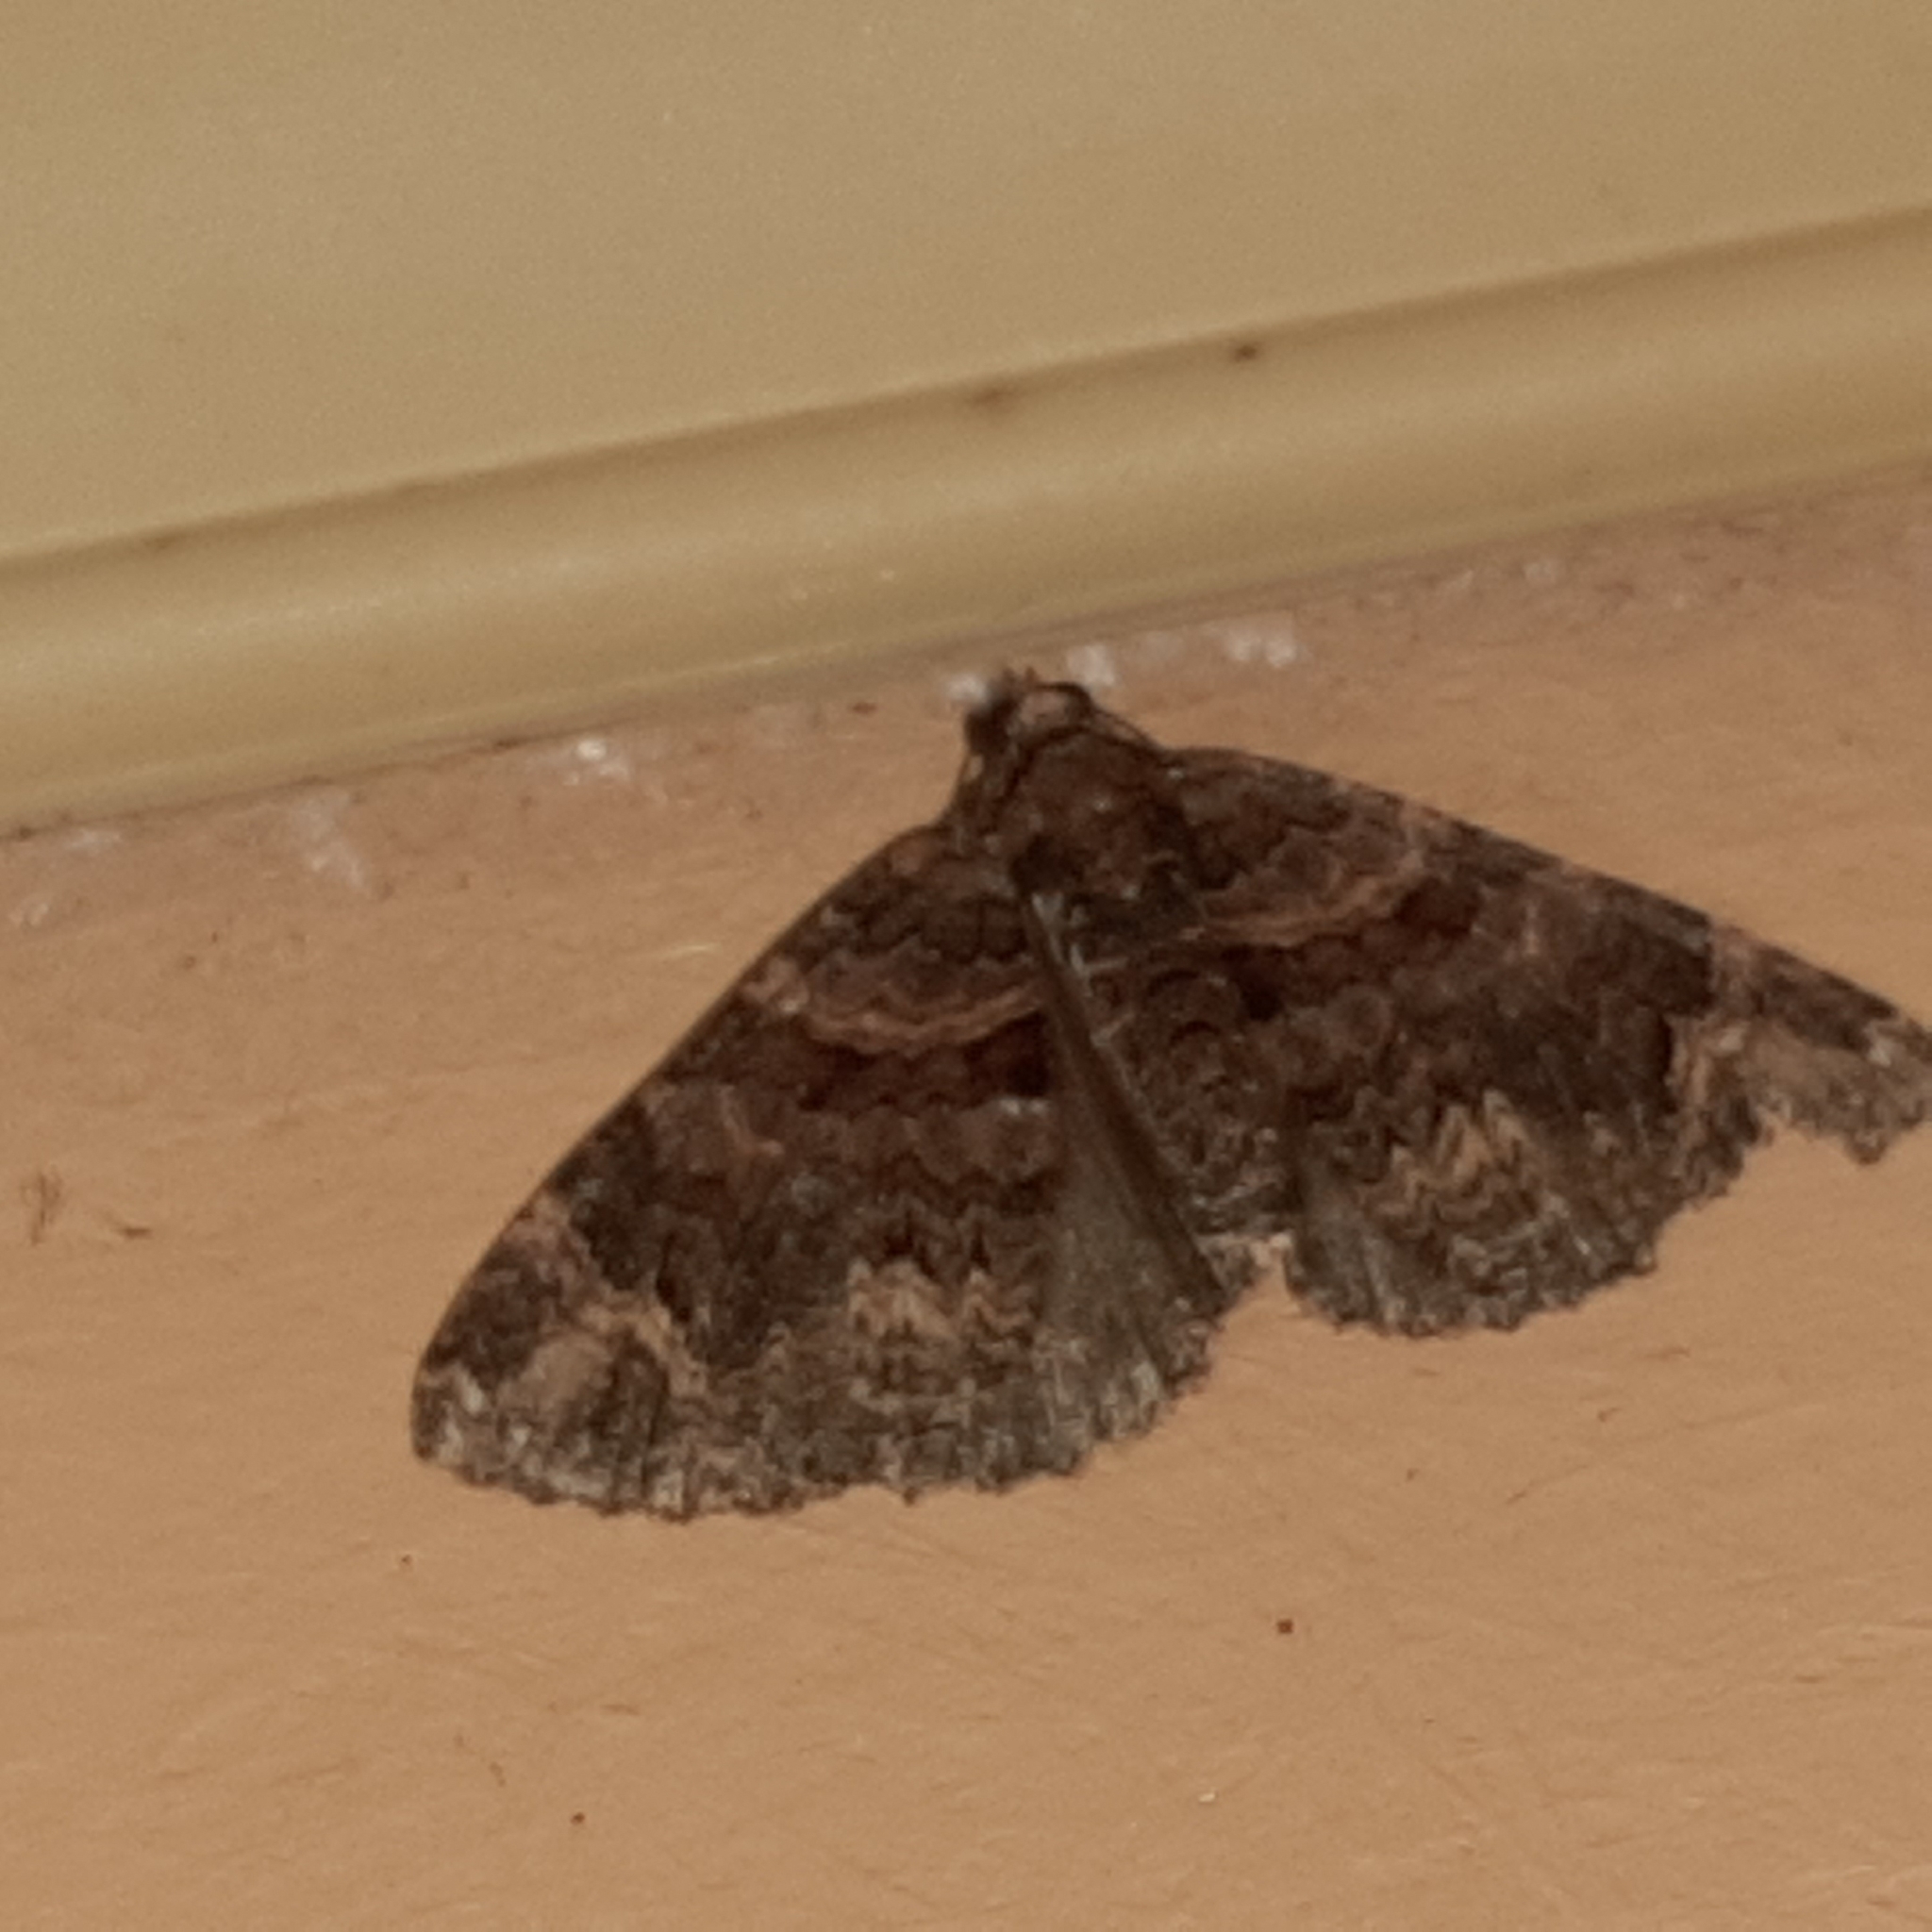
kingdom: Animalia
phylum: Arthropoda
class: Insecta
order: Lepidoptera
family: Geometridae
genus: Hammaptera
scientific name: Hammaptera improbaria
